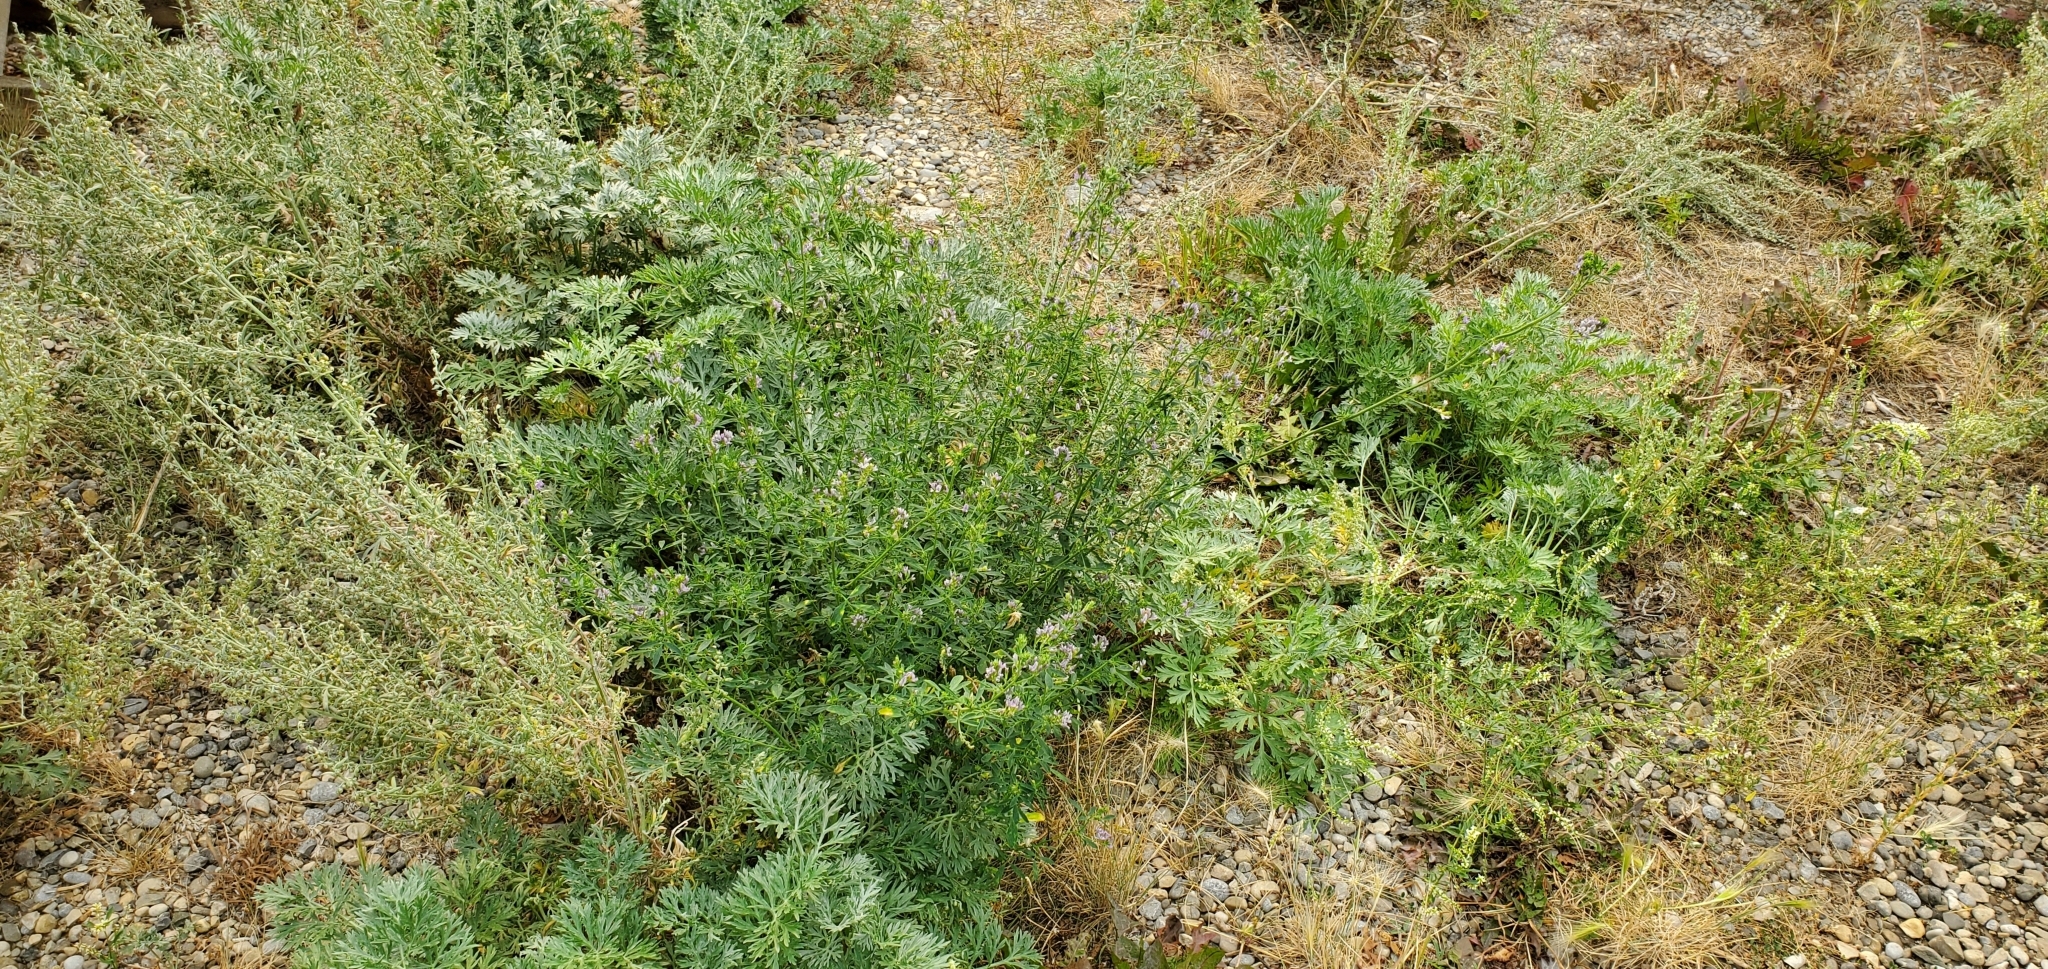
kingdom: Plantae
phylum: Tracheophyta
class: Magnoliopsida
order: Fabales
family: Fabaceae
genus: Medicago
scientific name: Medicago sativa
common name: Alfalfa
